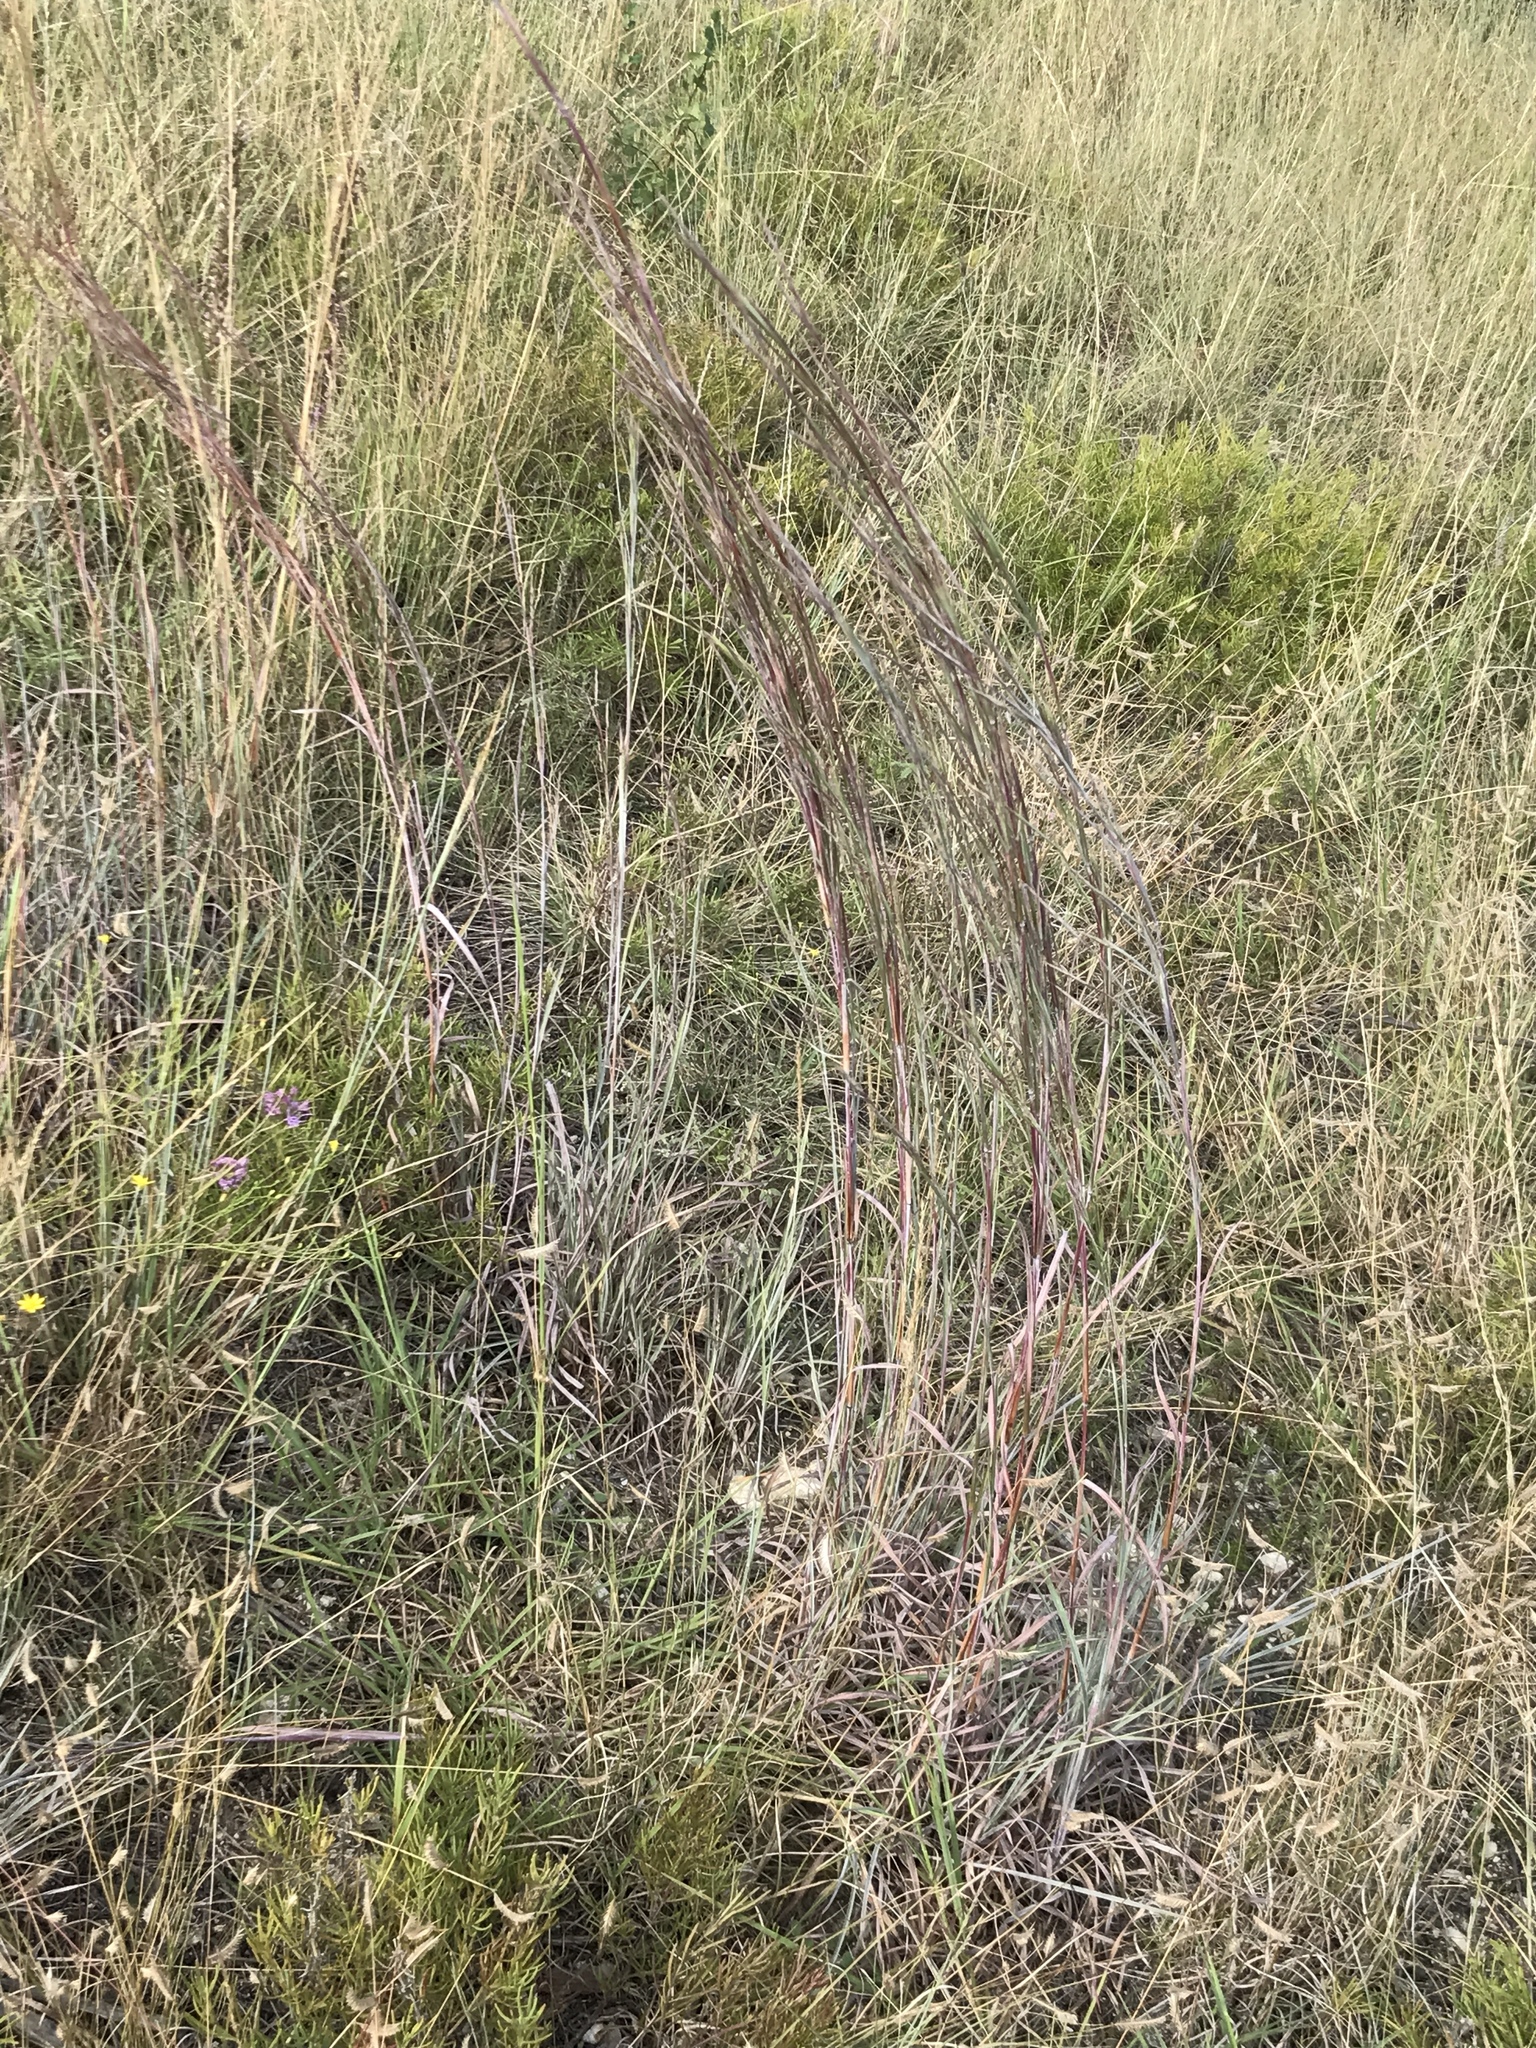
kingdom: Plantae
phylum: Tracheophyta
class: Liliopsida
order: Poales
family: Poaceae
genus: Schizachyrium
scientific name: Schizachyrium scoparium
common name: Little bluestem
